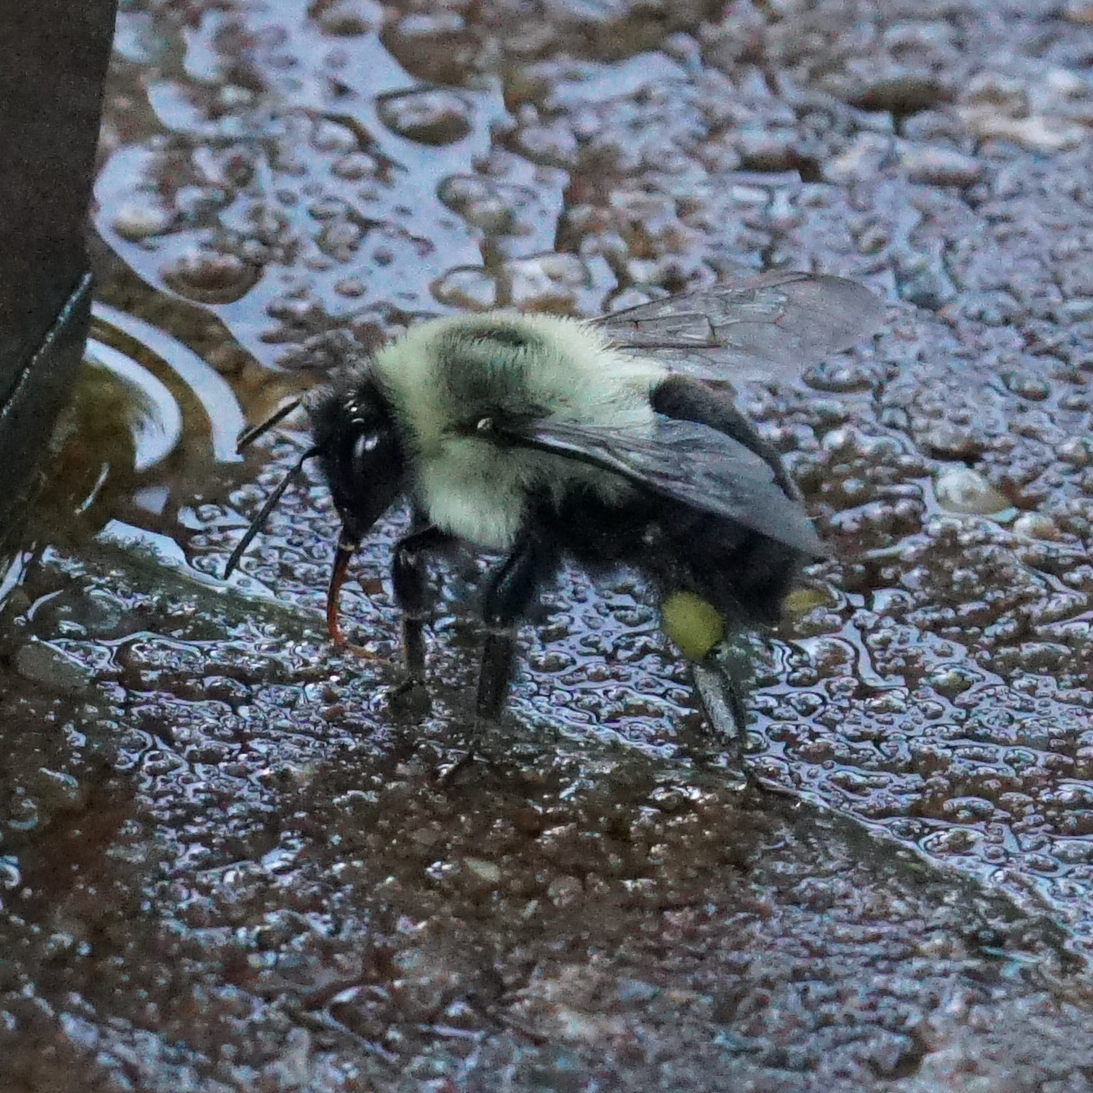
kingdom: Animalia
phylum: Arthropoda
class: Insecta
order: Hymenoptera
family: Apidae
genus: Bombus
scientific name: Bombus impatiens
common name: Common eastern bumble bee
